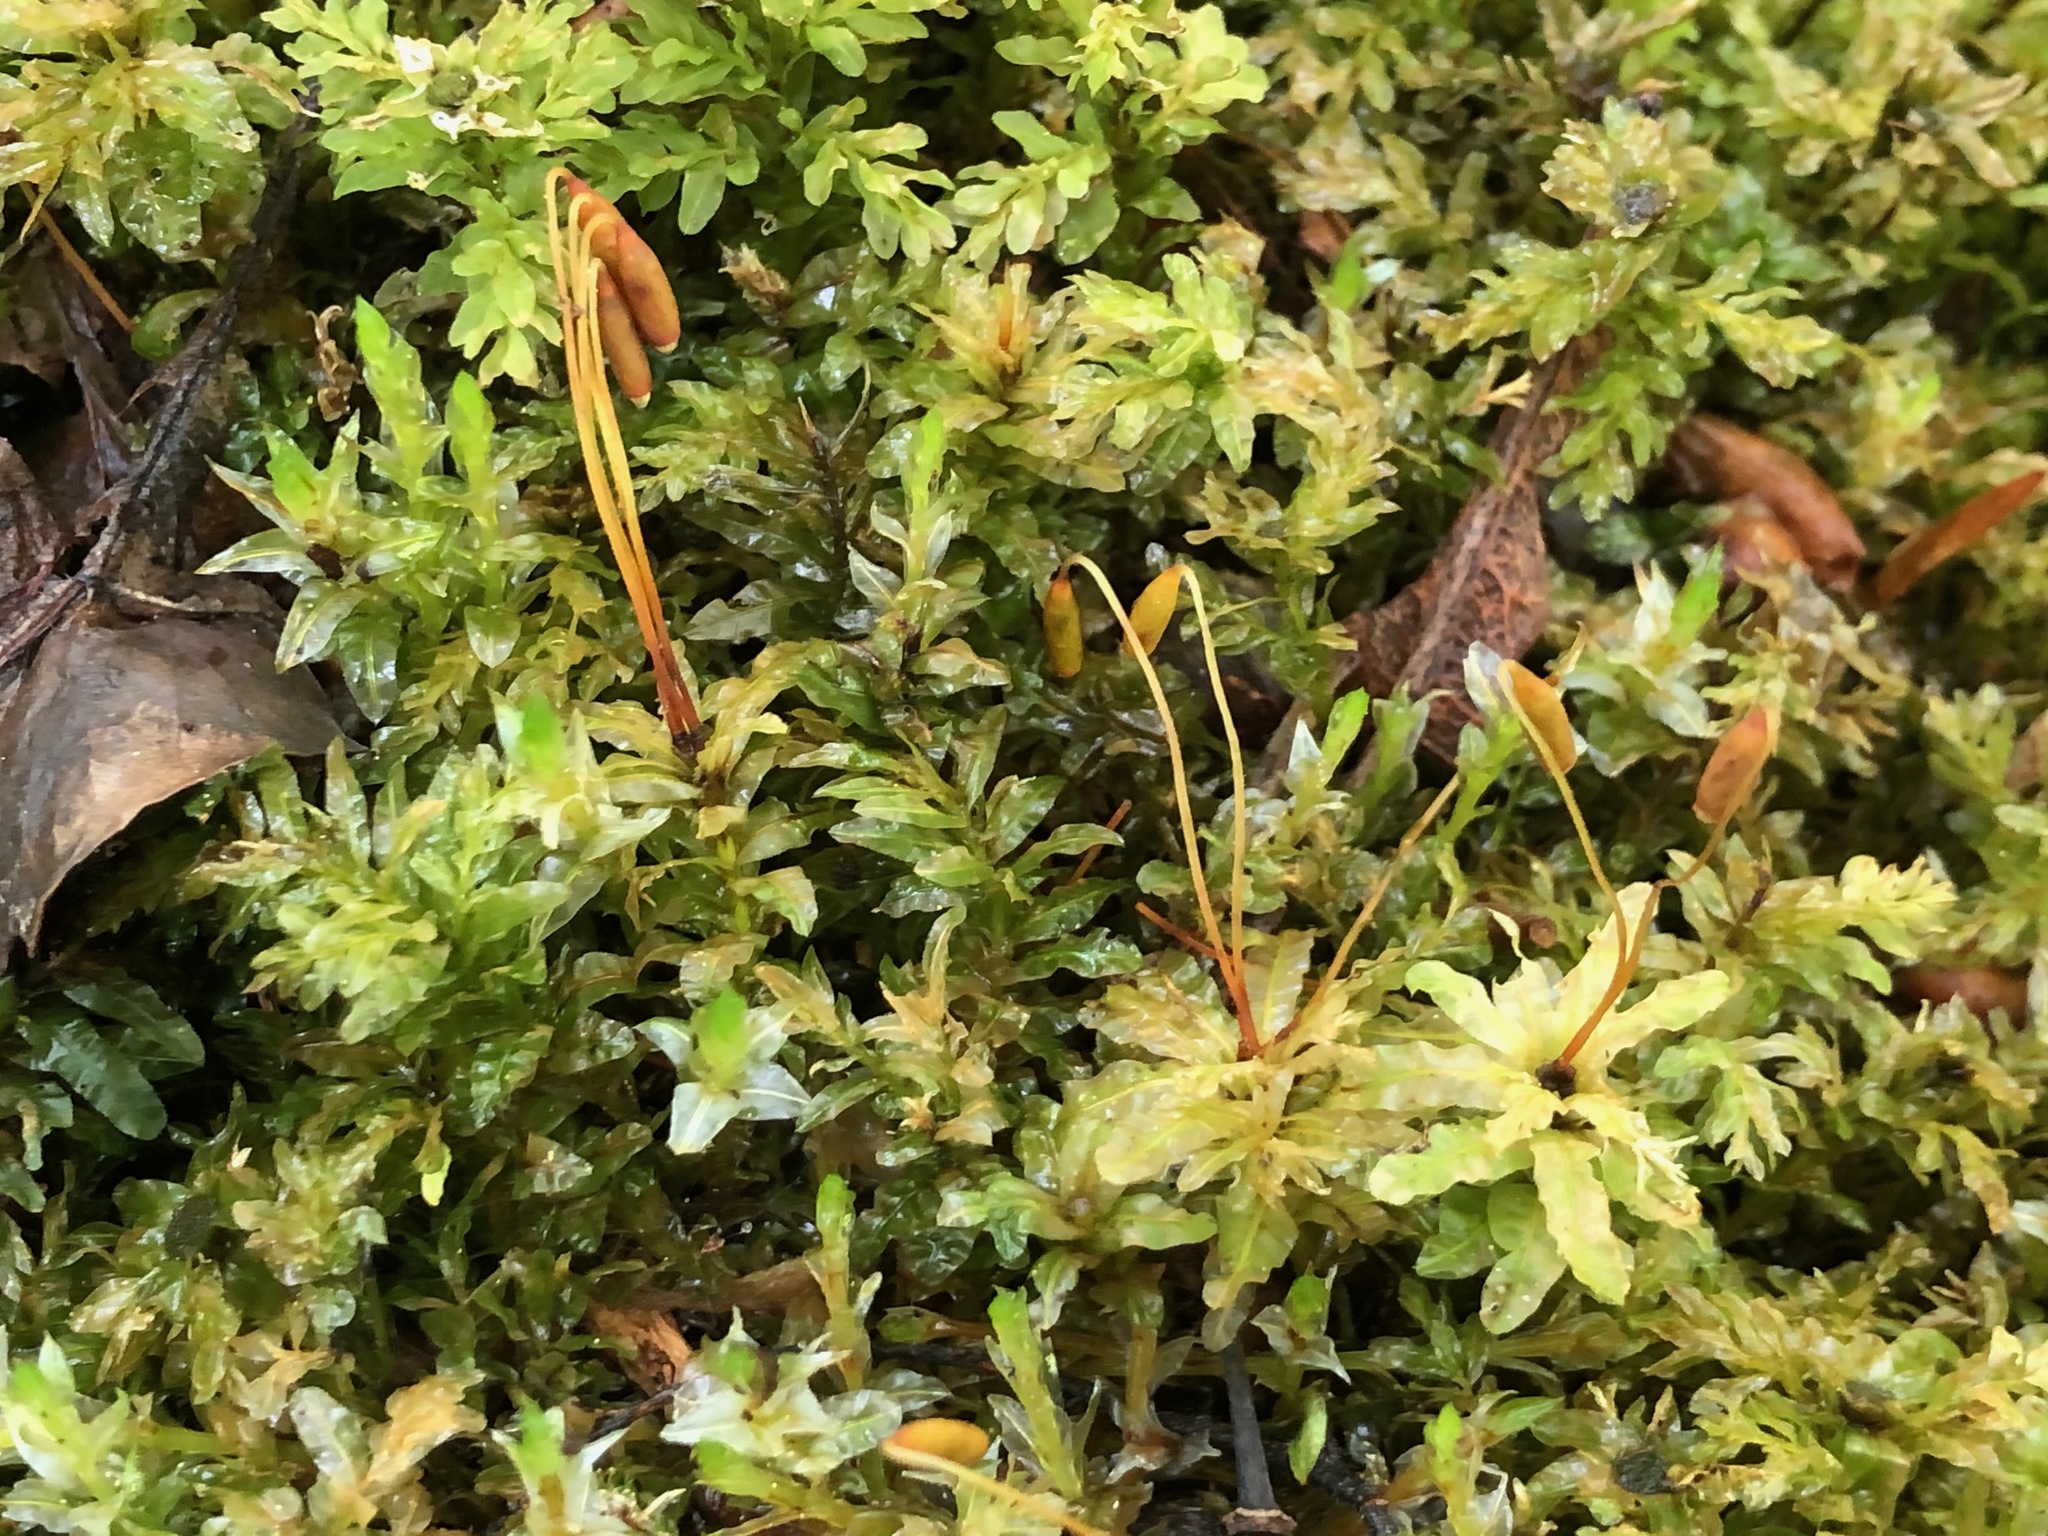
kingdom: Plantae
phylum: Bryophyta
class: Bryopsida
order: Bryales
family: Mniaceae
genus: Plagiomnium
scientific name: Plagiomnium undulatum
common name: Hart's-tongue thyme-moss
